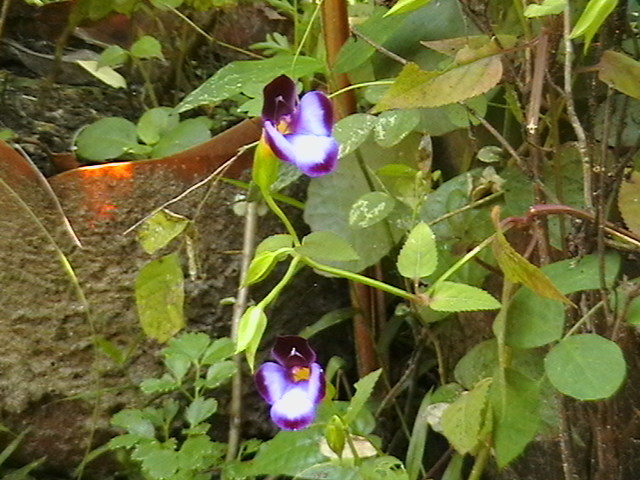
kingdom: Plantae
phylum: Tracheophyta
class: Magnoliopsida
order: Lamiales
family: Linderniaceae
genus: Torenia
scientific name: Torenia fournieri
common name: Bluewings
